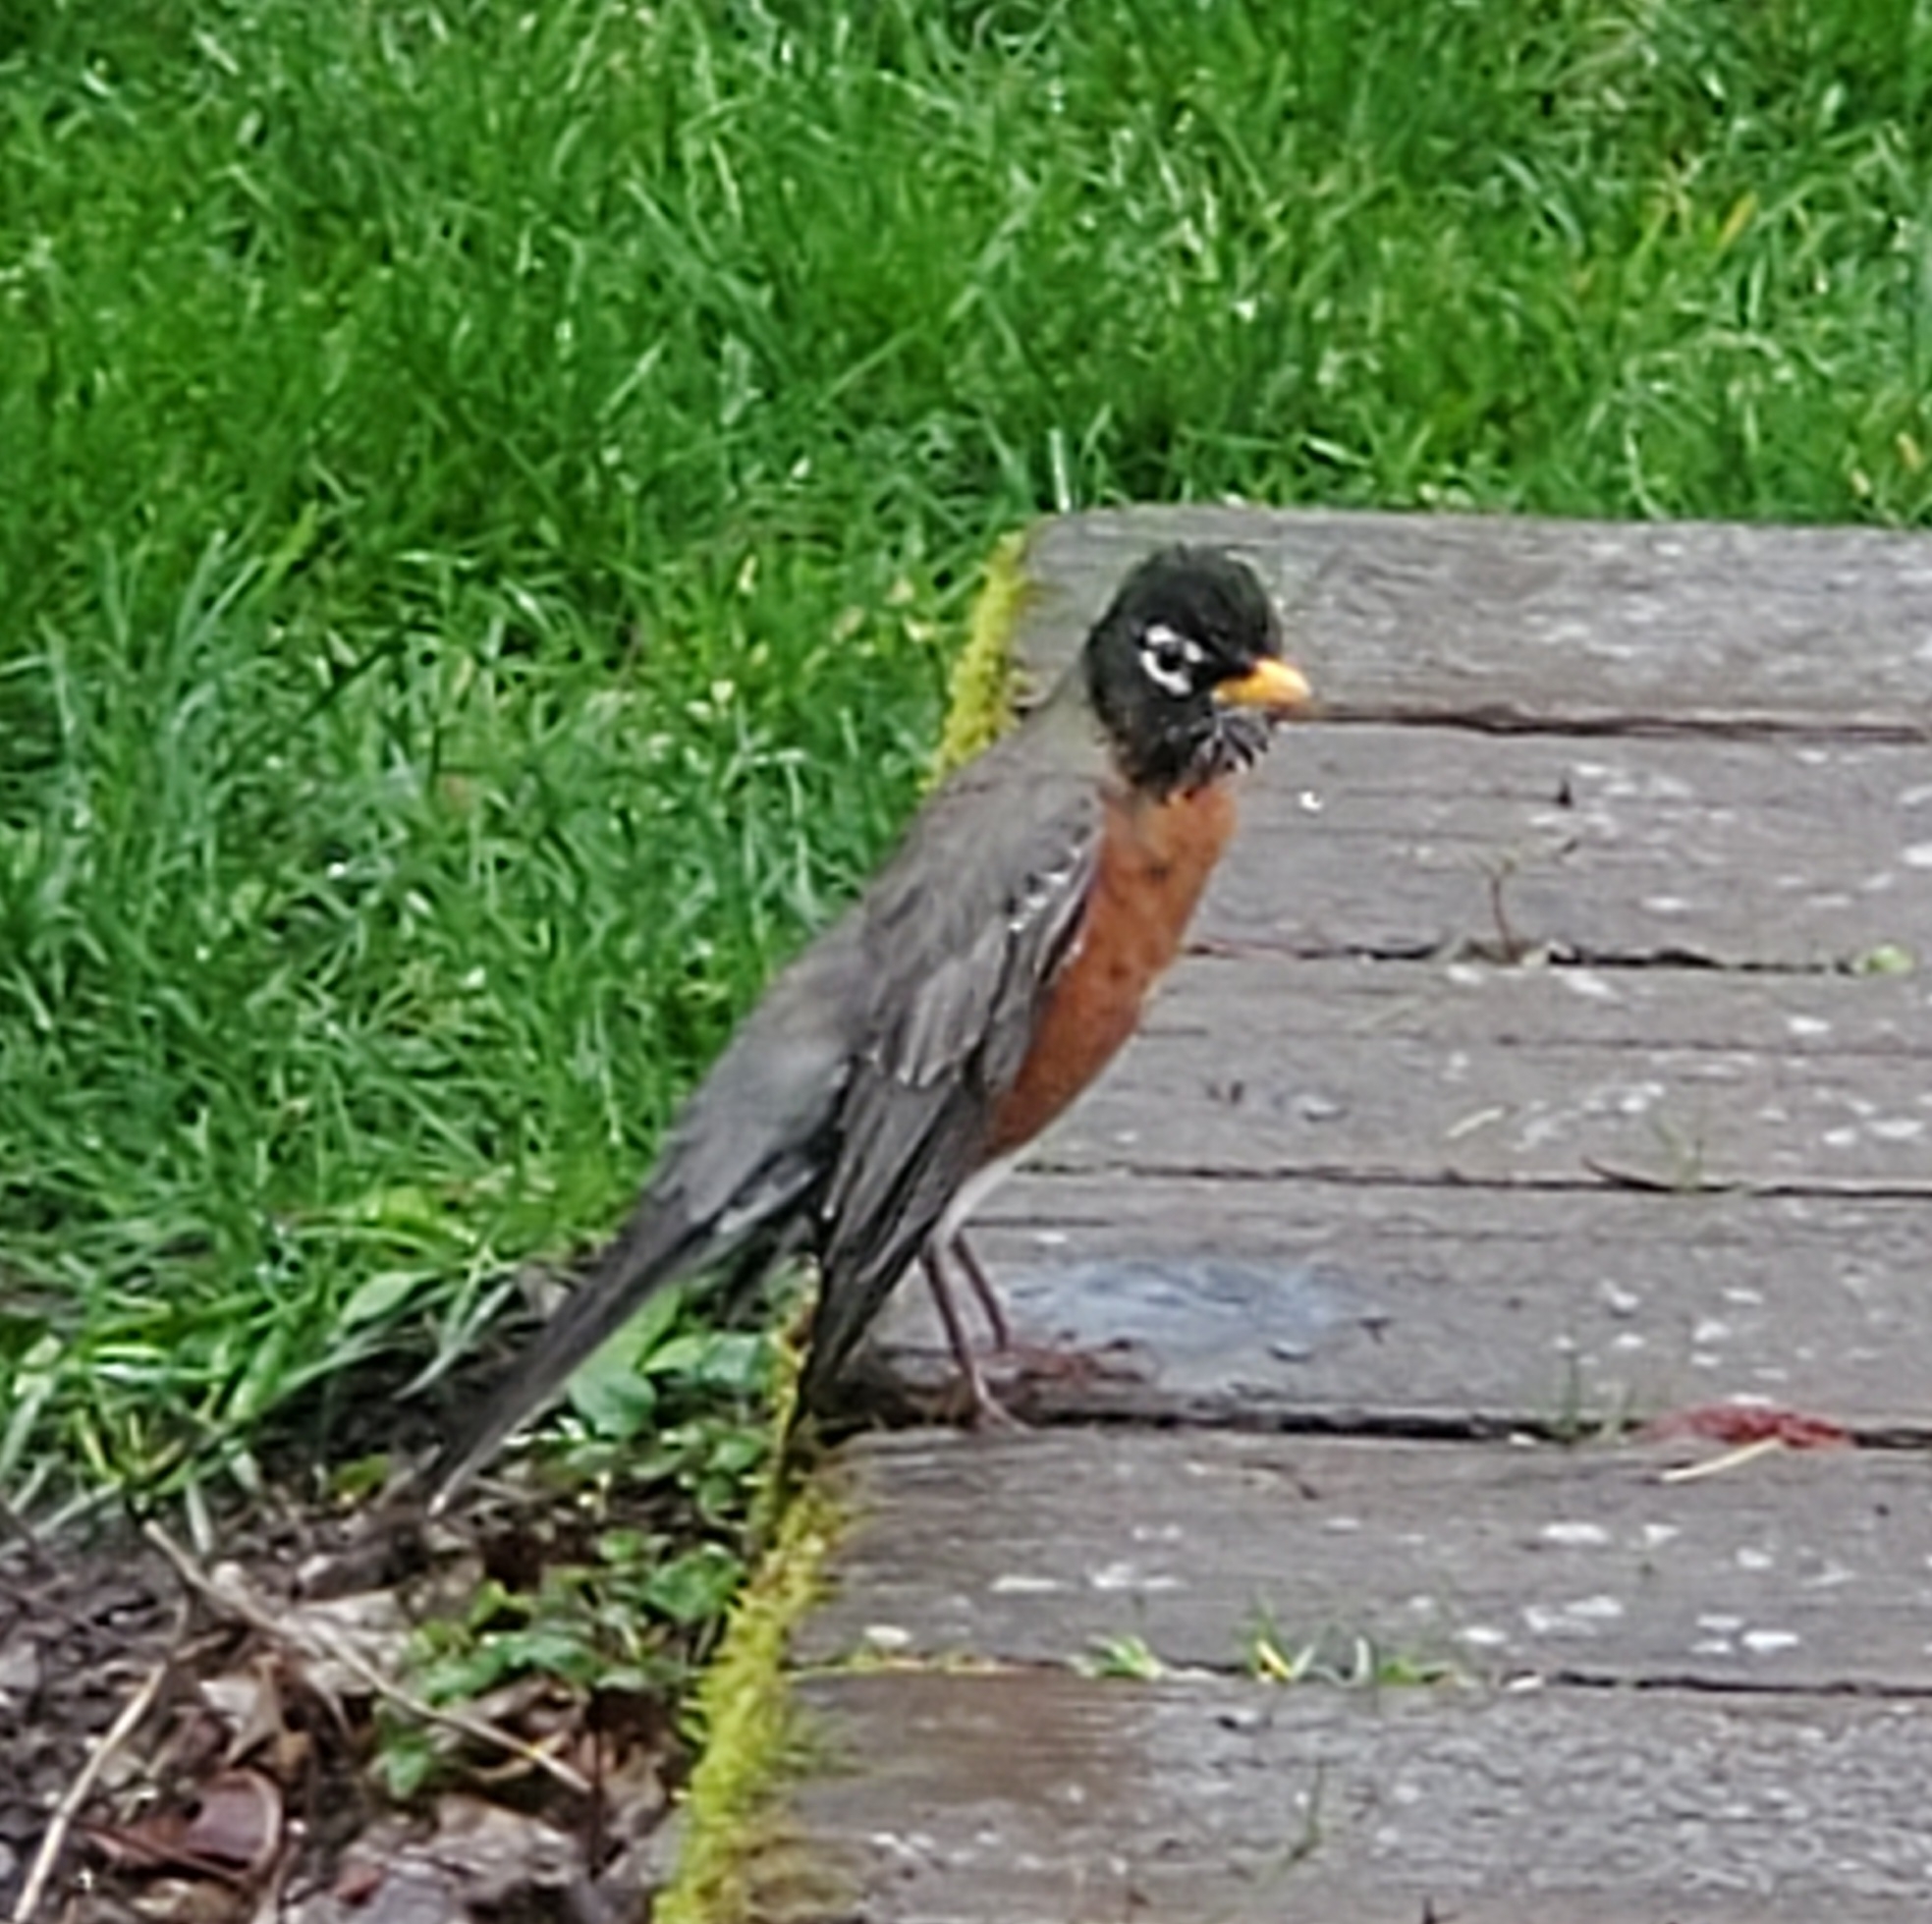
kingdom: Animalia
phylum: Chordata
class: Aves
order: Passeriformes
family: Turdidae
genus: Turdus
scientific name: Turdus migratorius
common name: American robin
